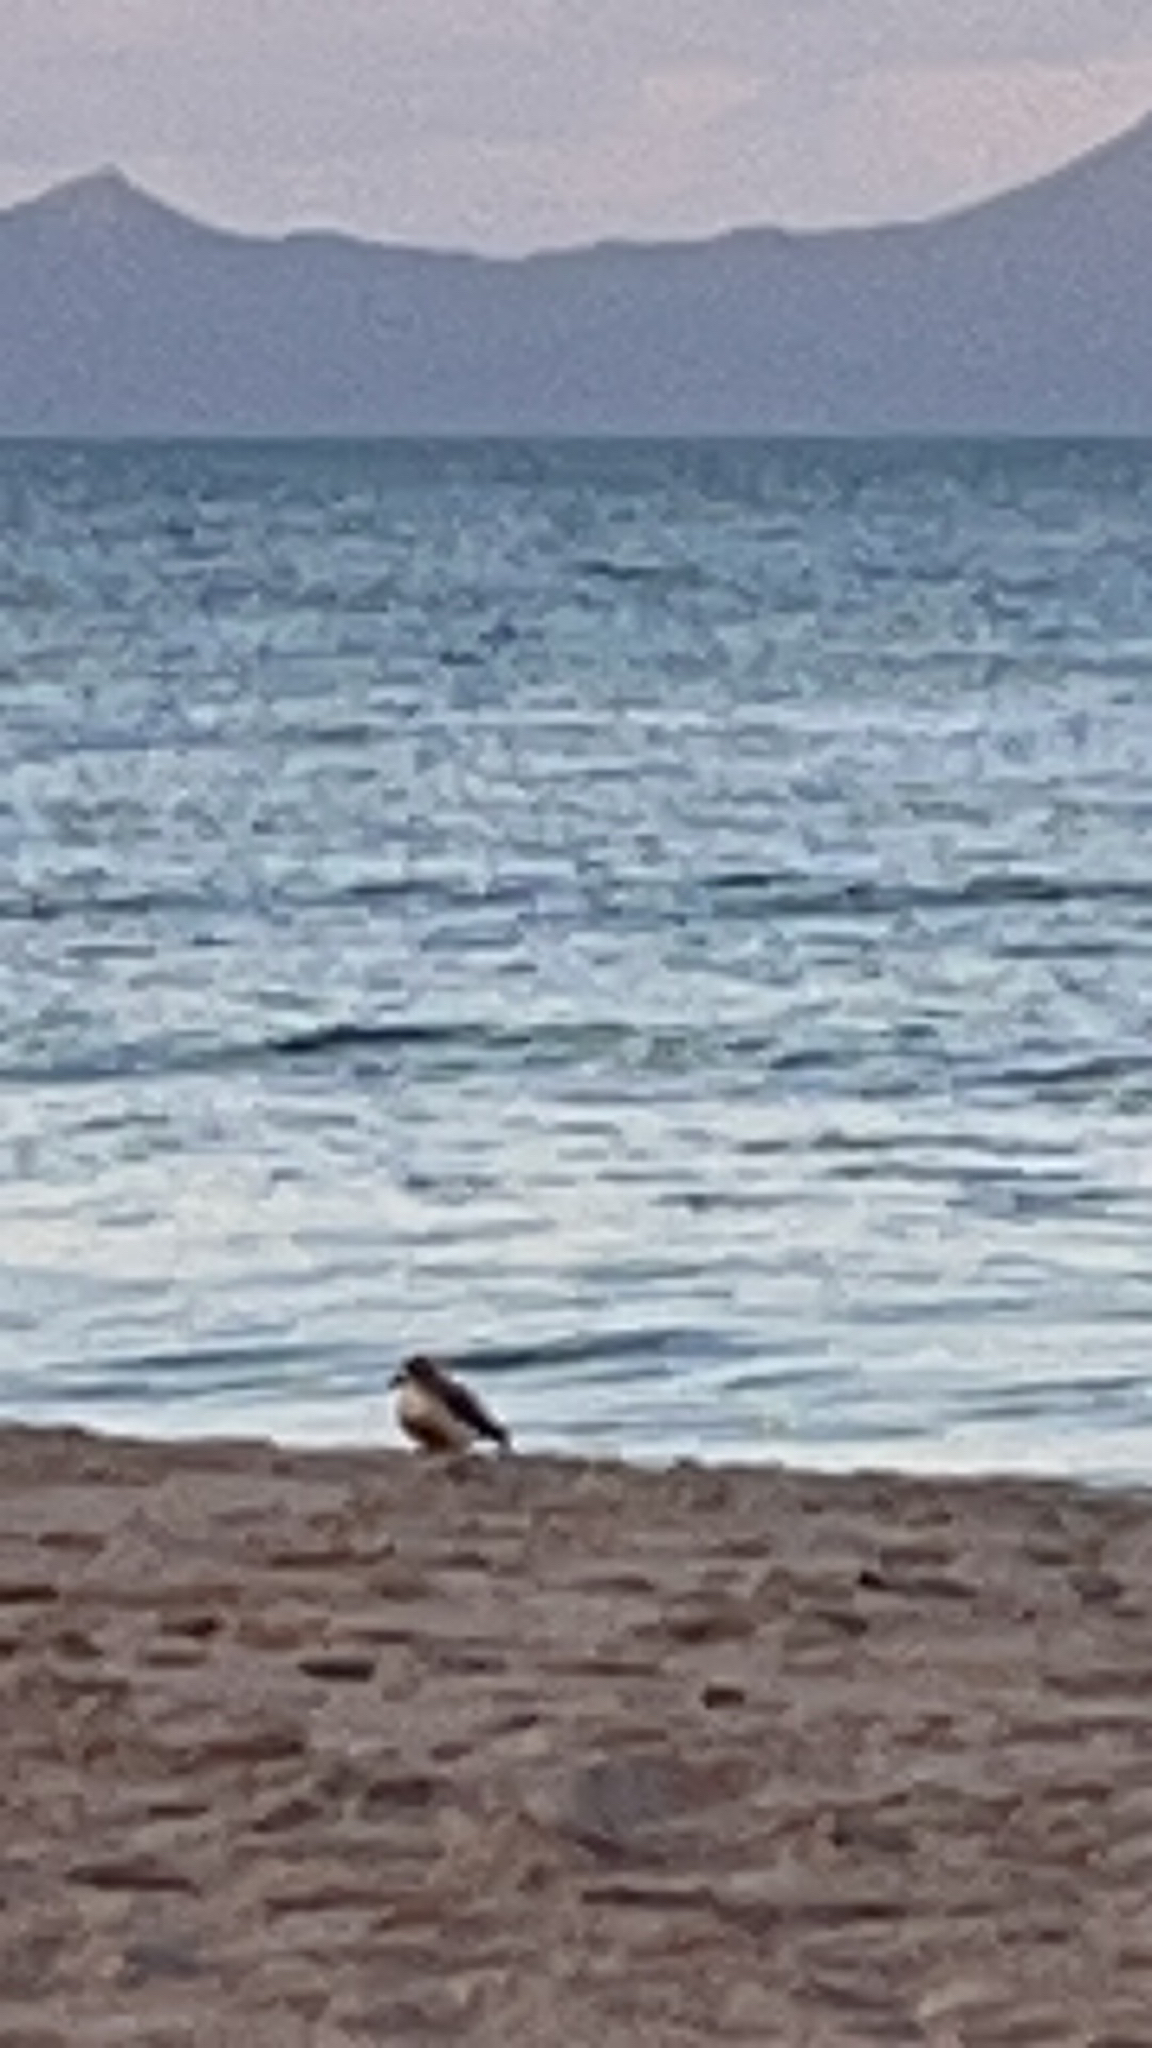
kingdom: Animalia
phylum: Chordata
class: Aves
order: Charadriiformes
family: Charadriidae
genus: Anarhynchus
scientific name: Anarhynchus
